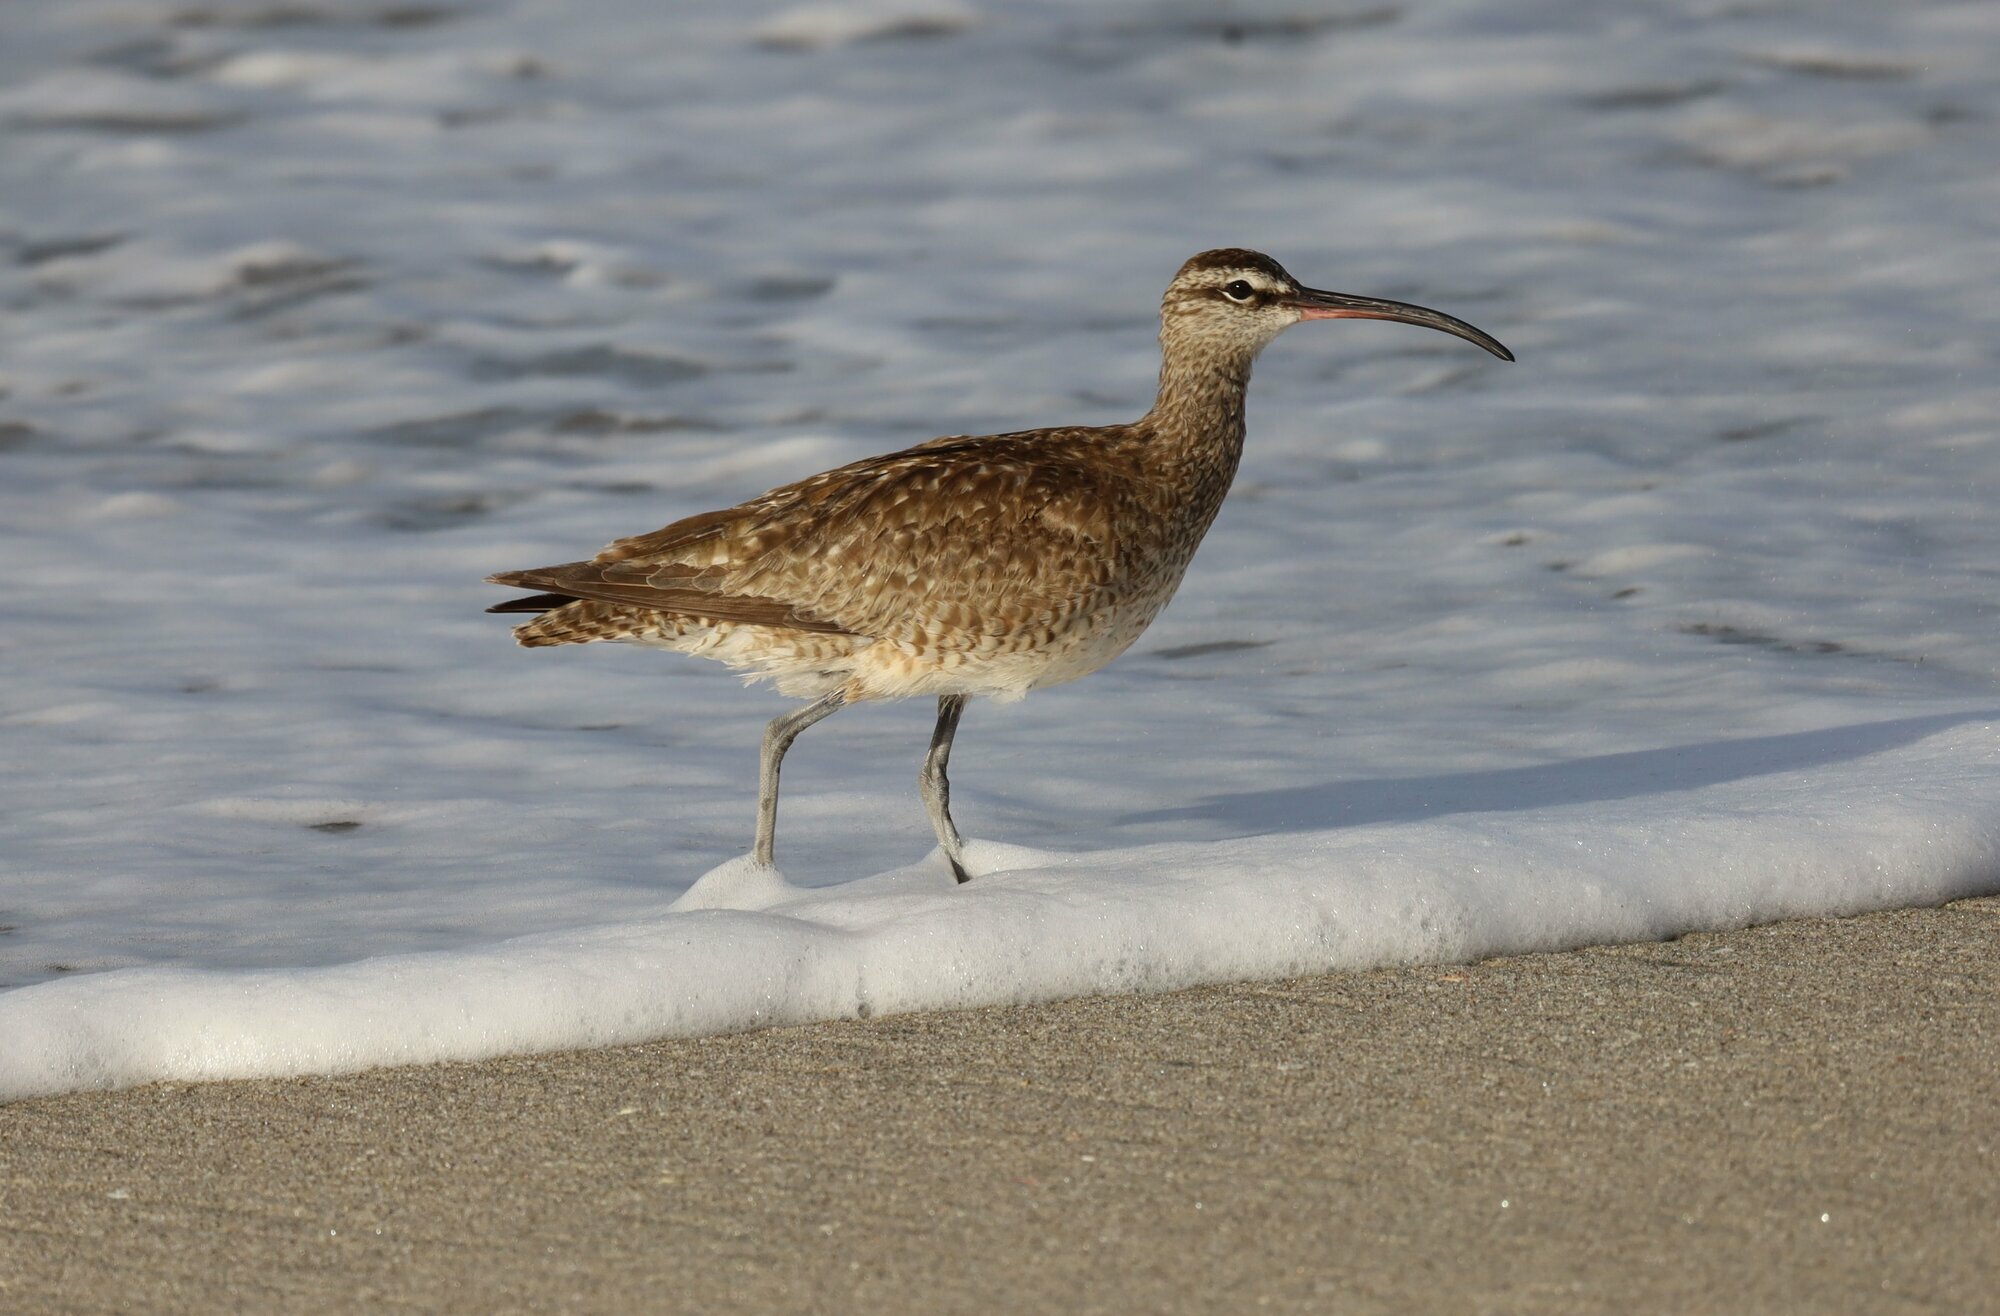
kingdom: Animalia
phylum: Chordata
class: Aves
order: Charadriiformes
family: Scolopacidae
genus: Numenius
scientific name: Numenius phaeopus
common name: Whimbrel
